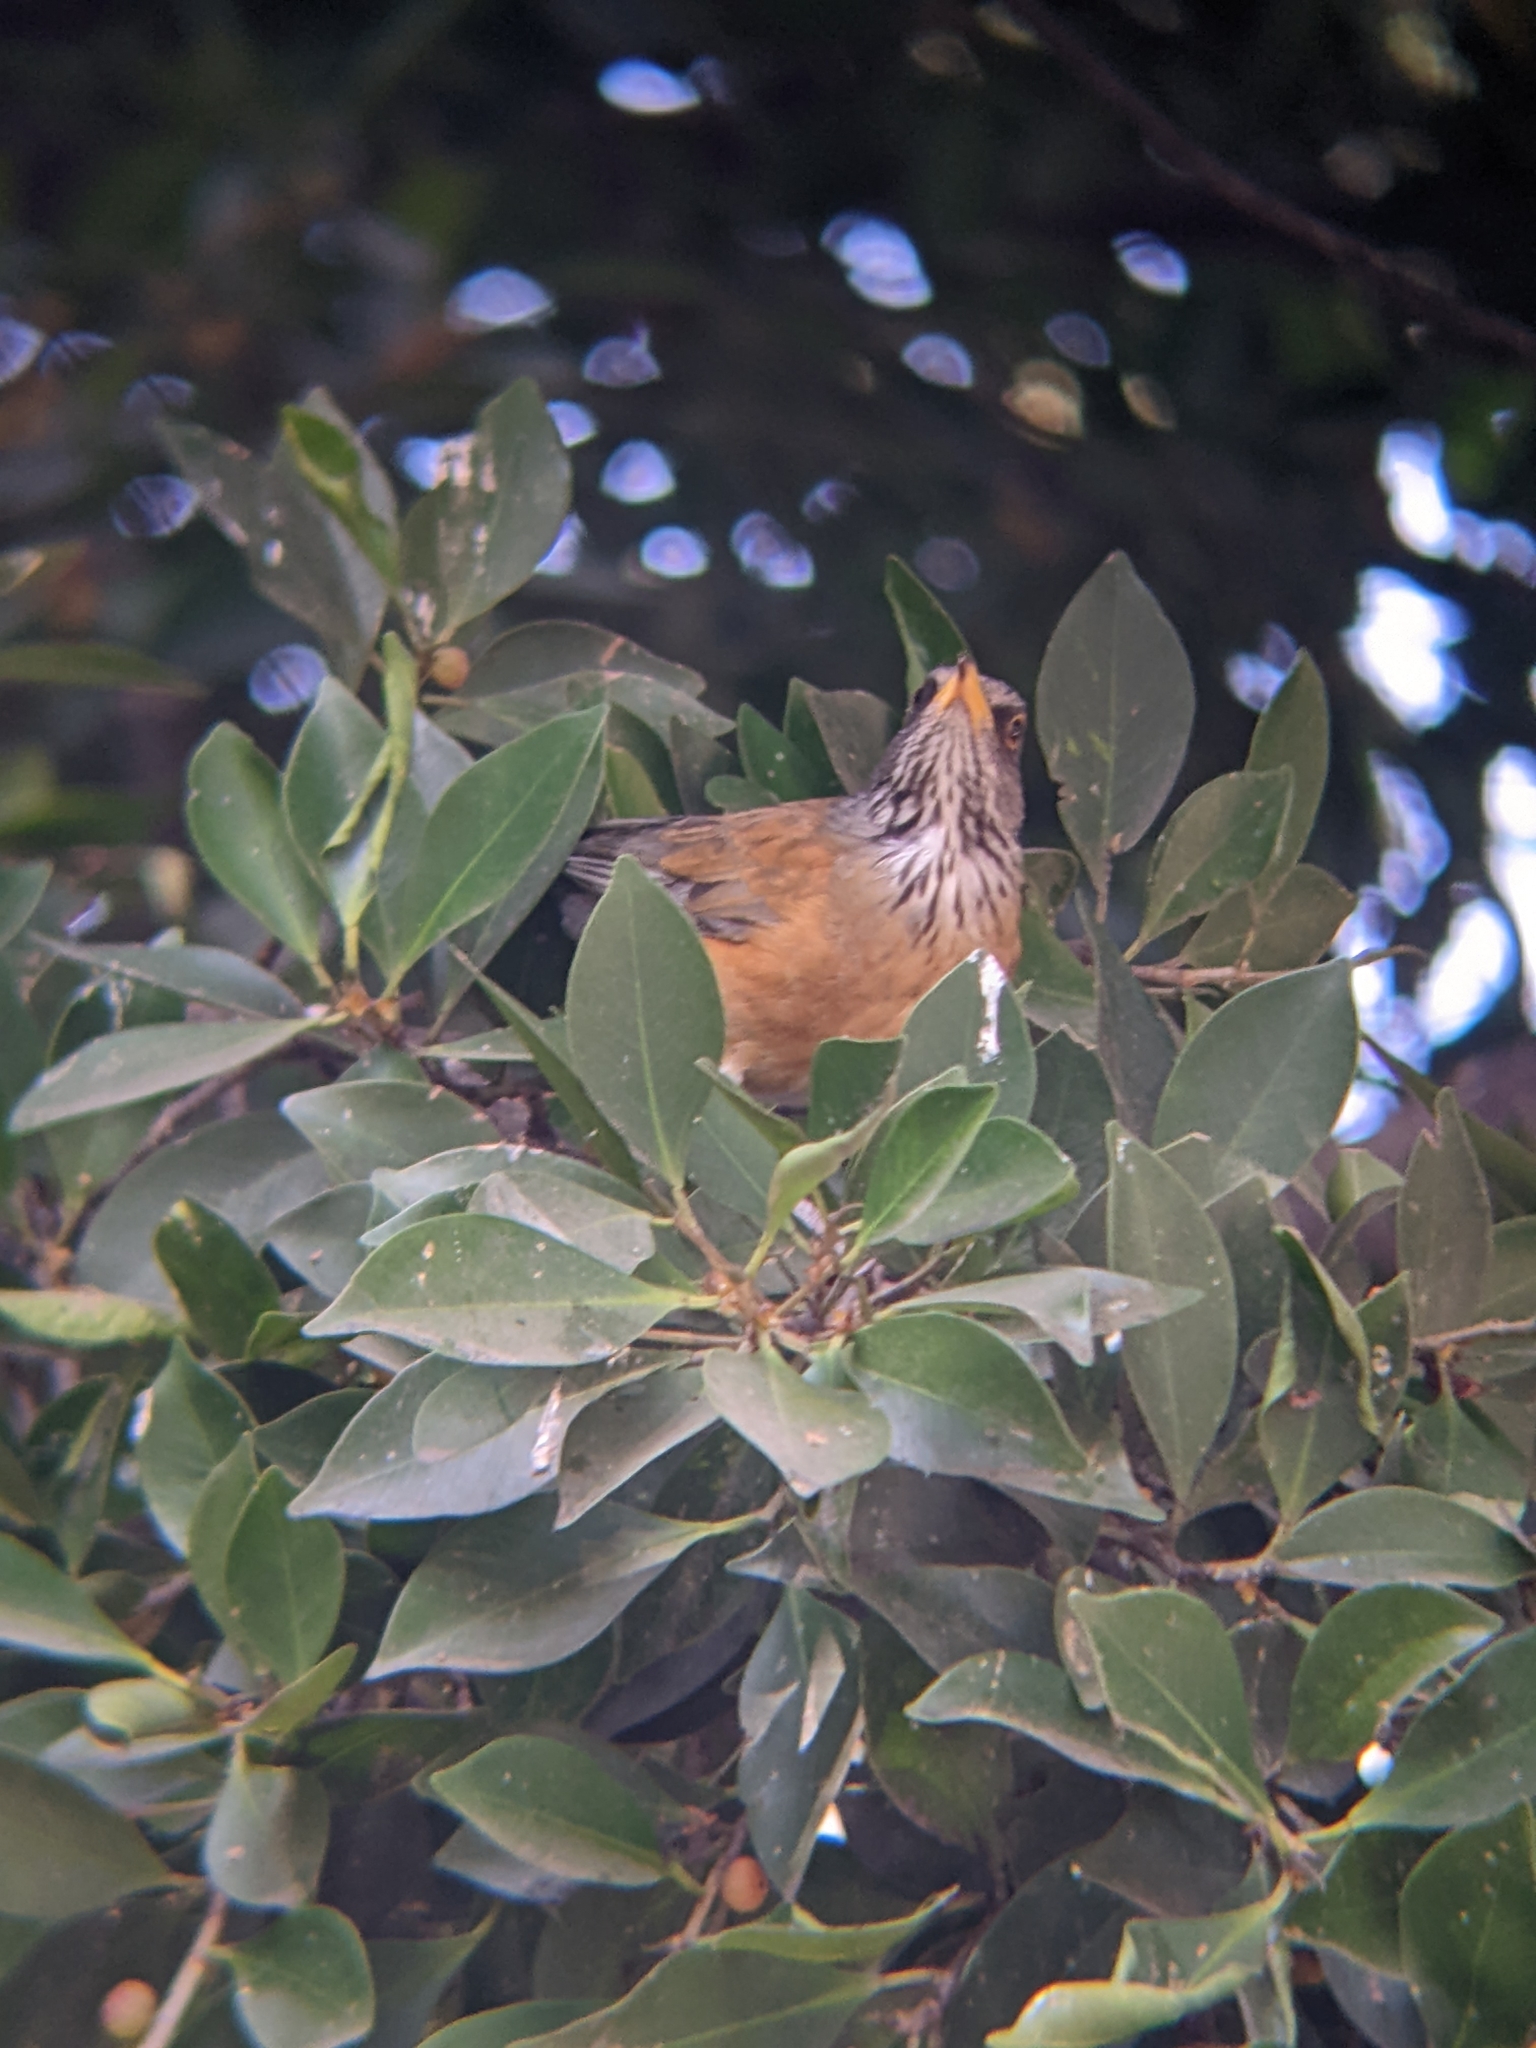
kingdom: Animalia
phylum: Chordata
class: Aves
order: Passeriformes
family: Turdidae
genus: Turdus
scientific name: Turdus rufopalliatus
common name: Rufous-backed robin
